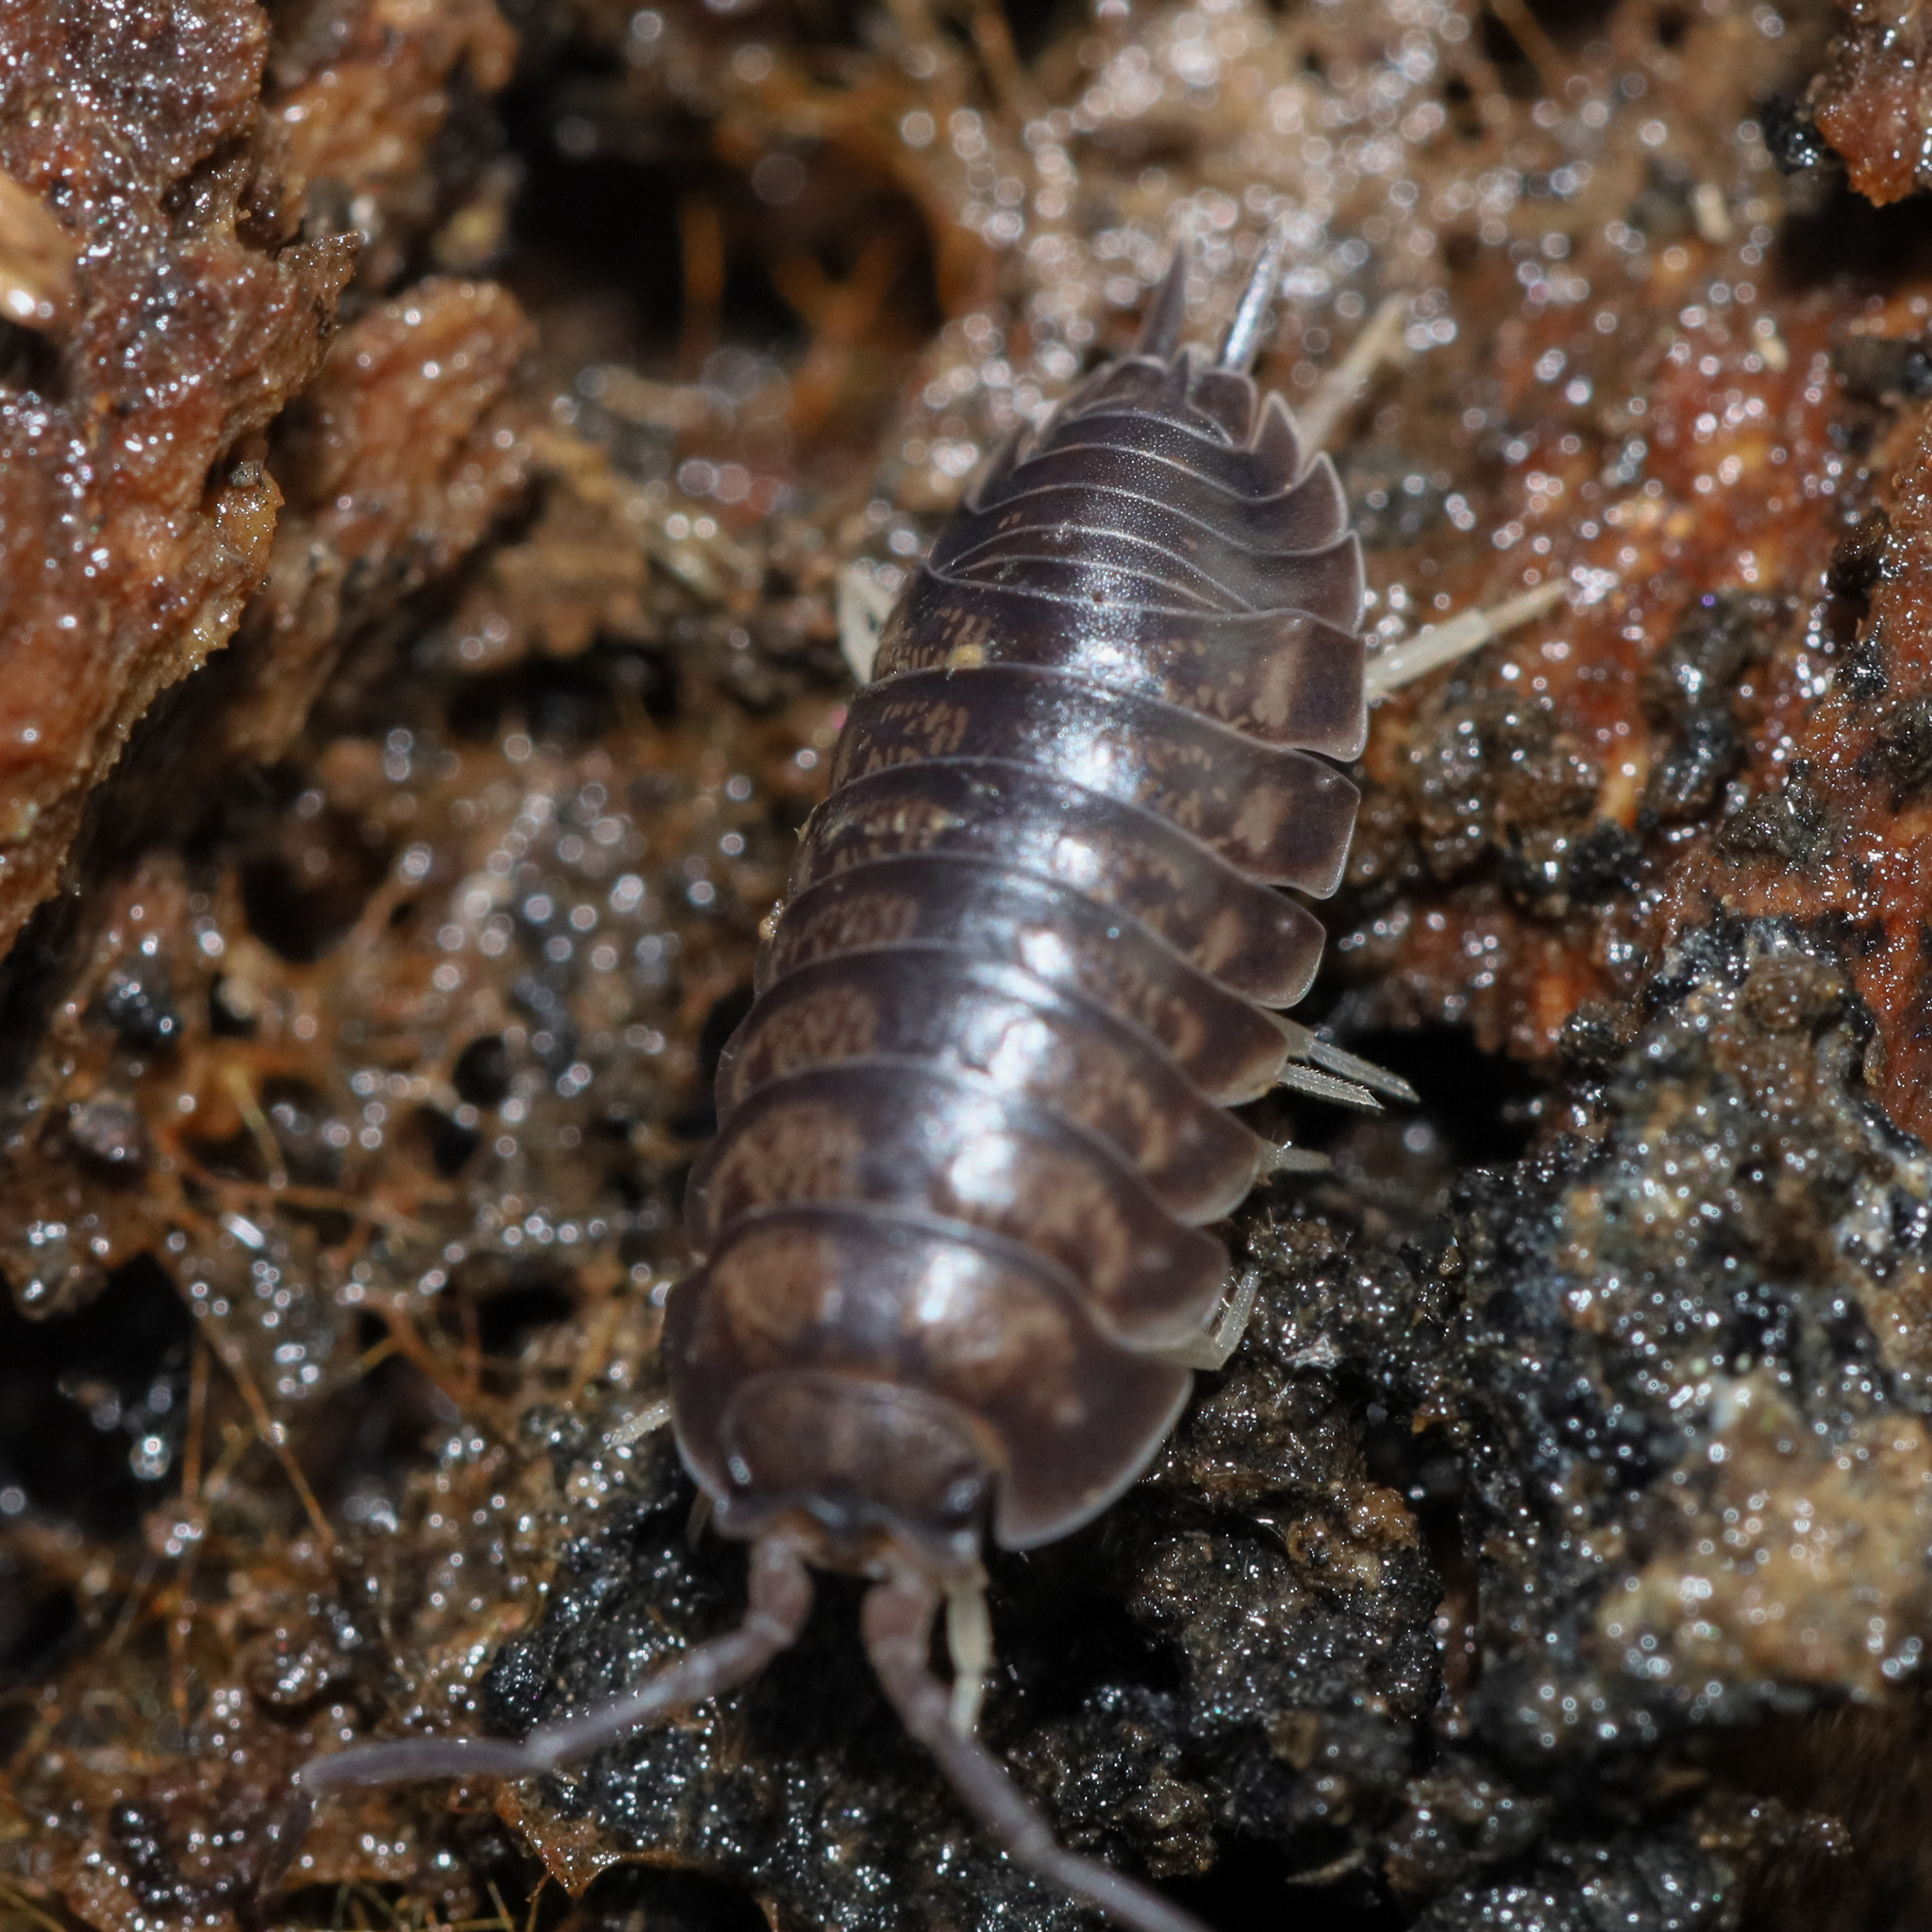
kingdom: Animalia
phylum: Arthropoda
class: Malacostraca
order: Isopoda
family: Cylisticidae
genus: Cylisticus
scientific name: Cylisticus convexus
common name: Curly woodlouse
